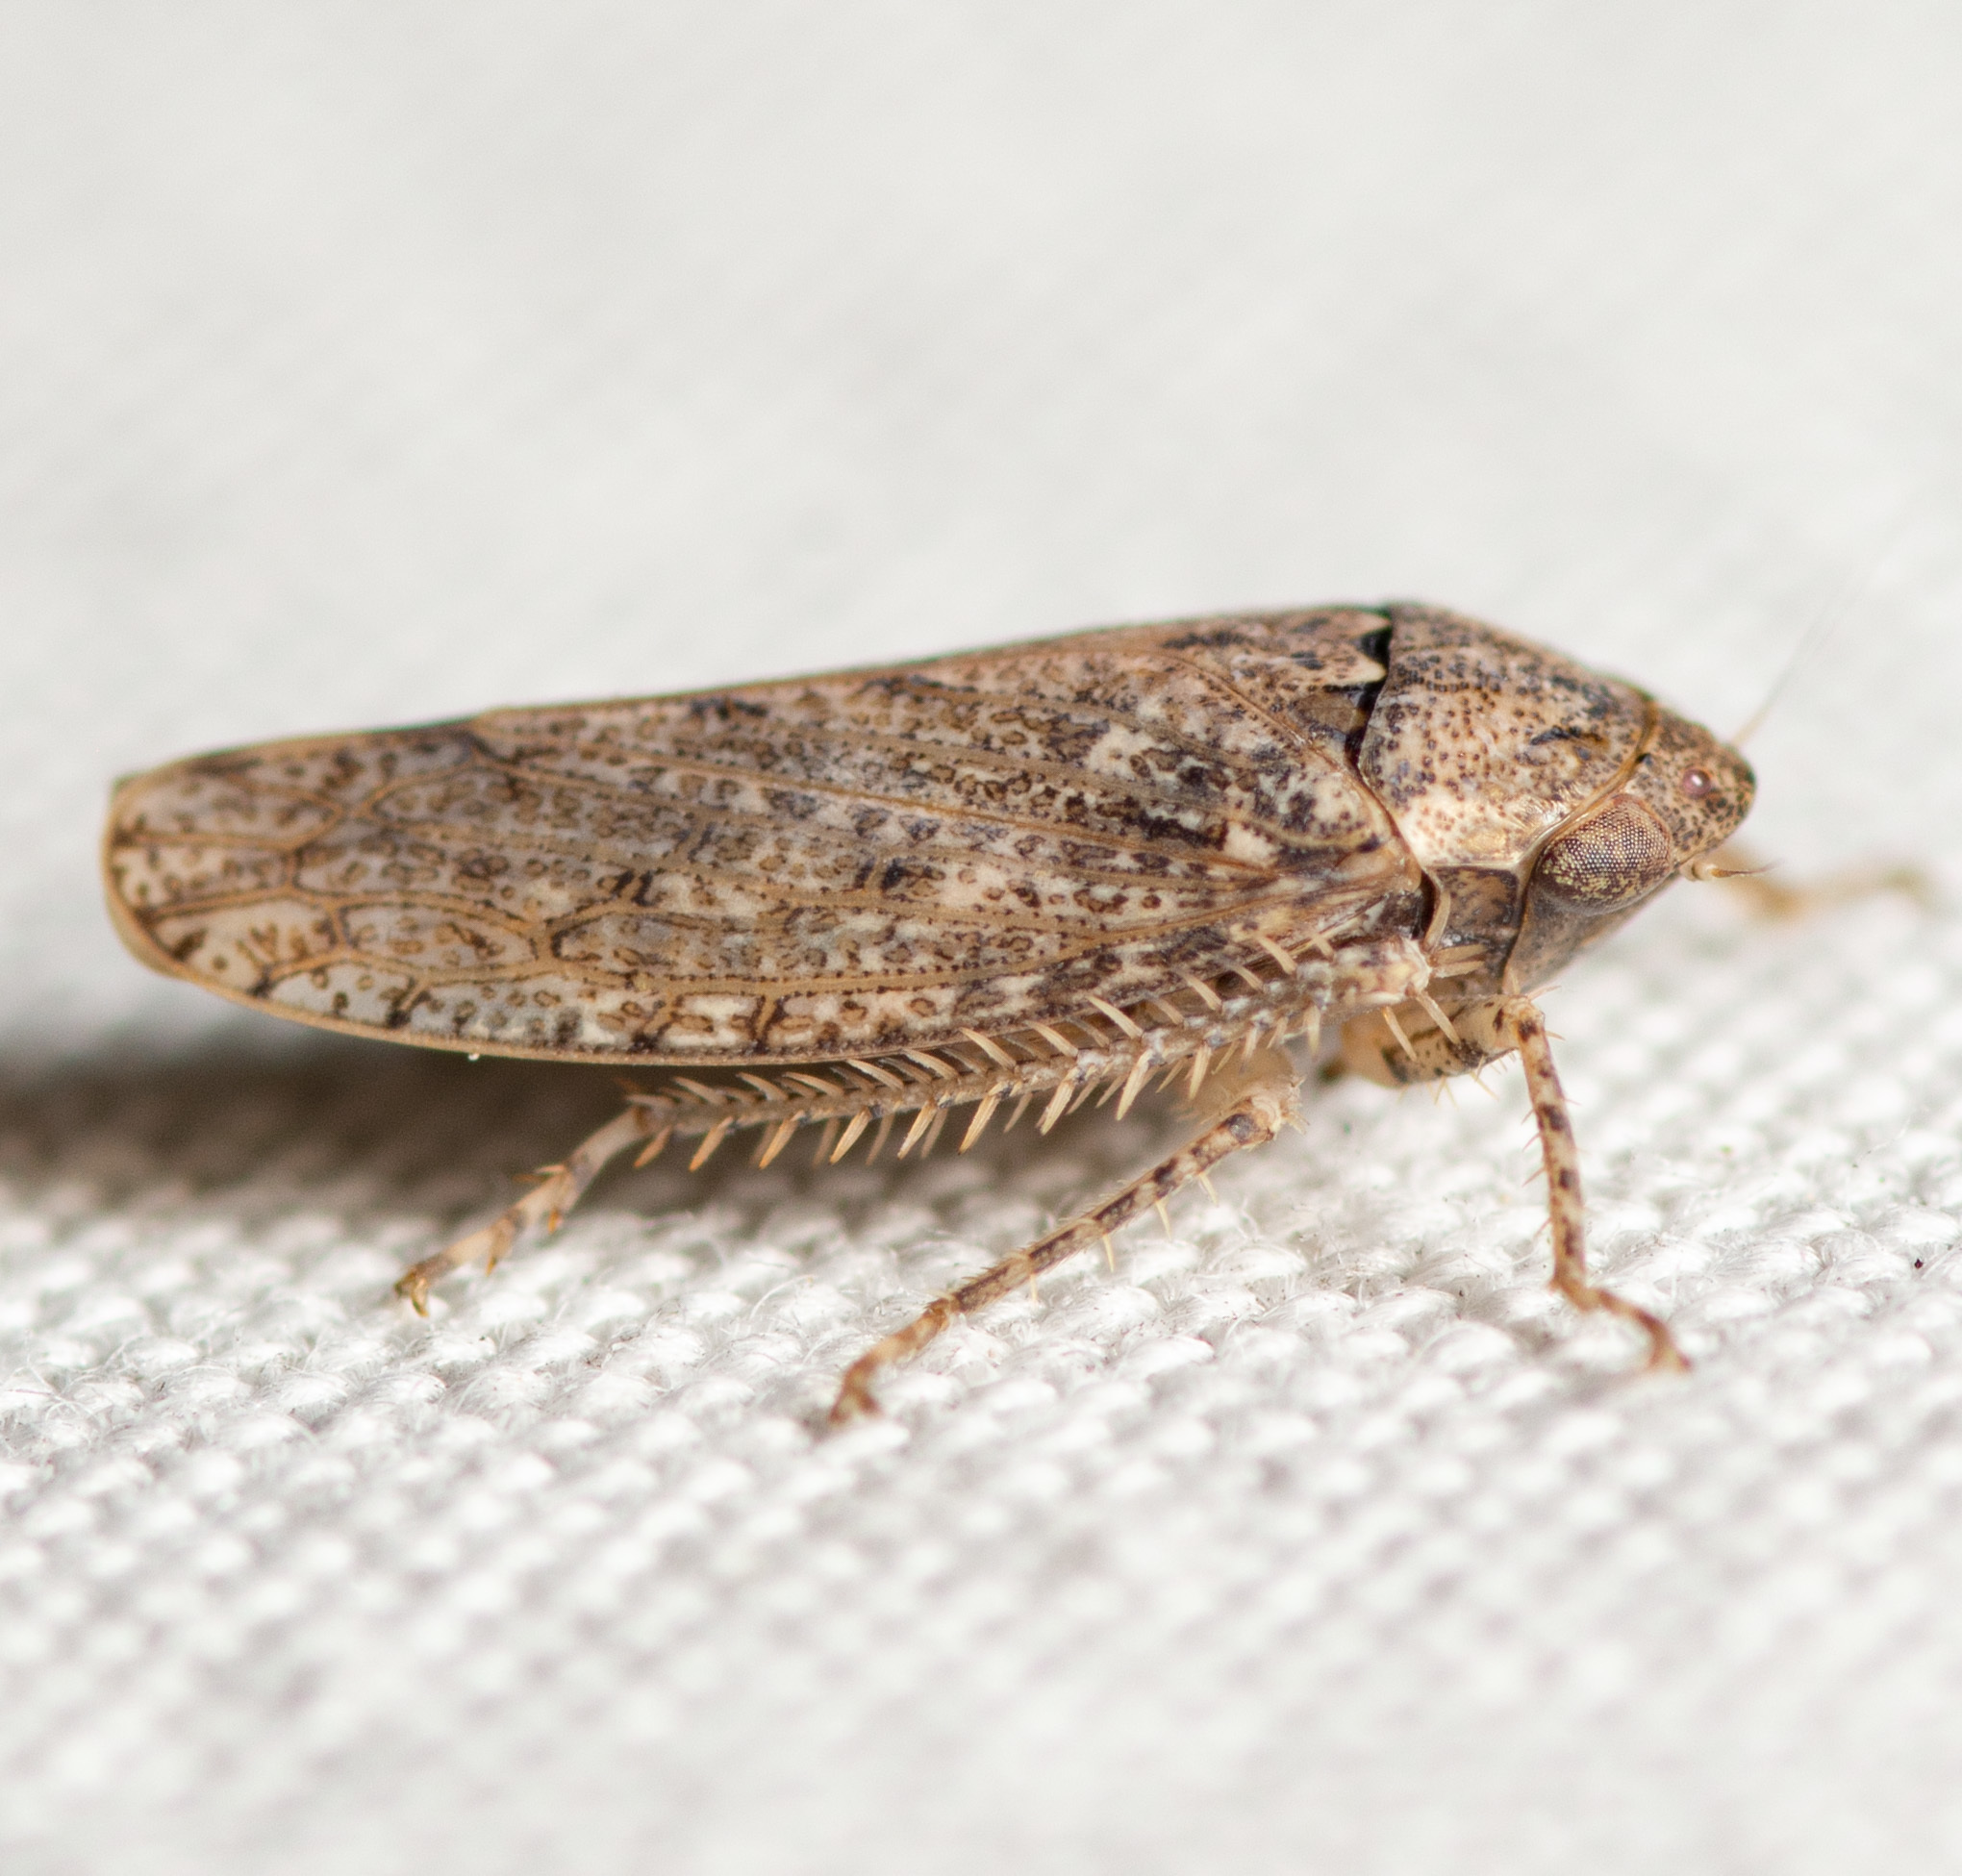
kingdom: Animalia
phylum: Arthropoda
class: Insecta
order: Hemiptera
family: Cicadellidae
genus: Curtara
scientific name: Curtara insularis
